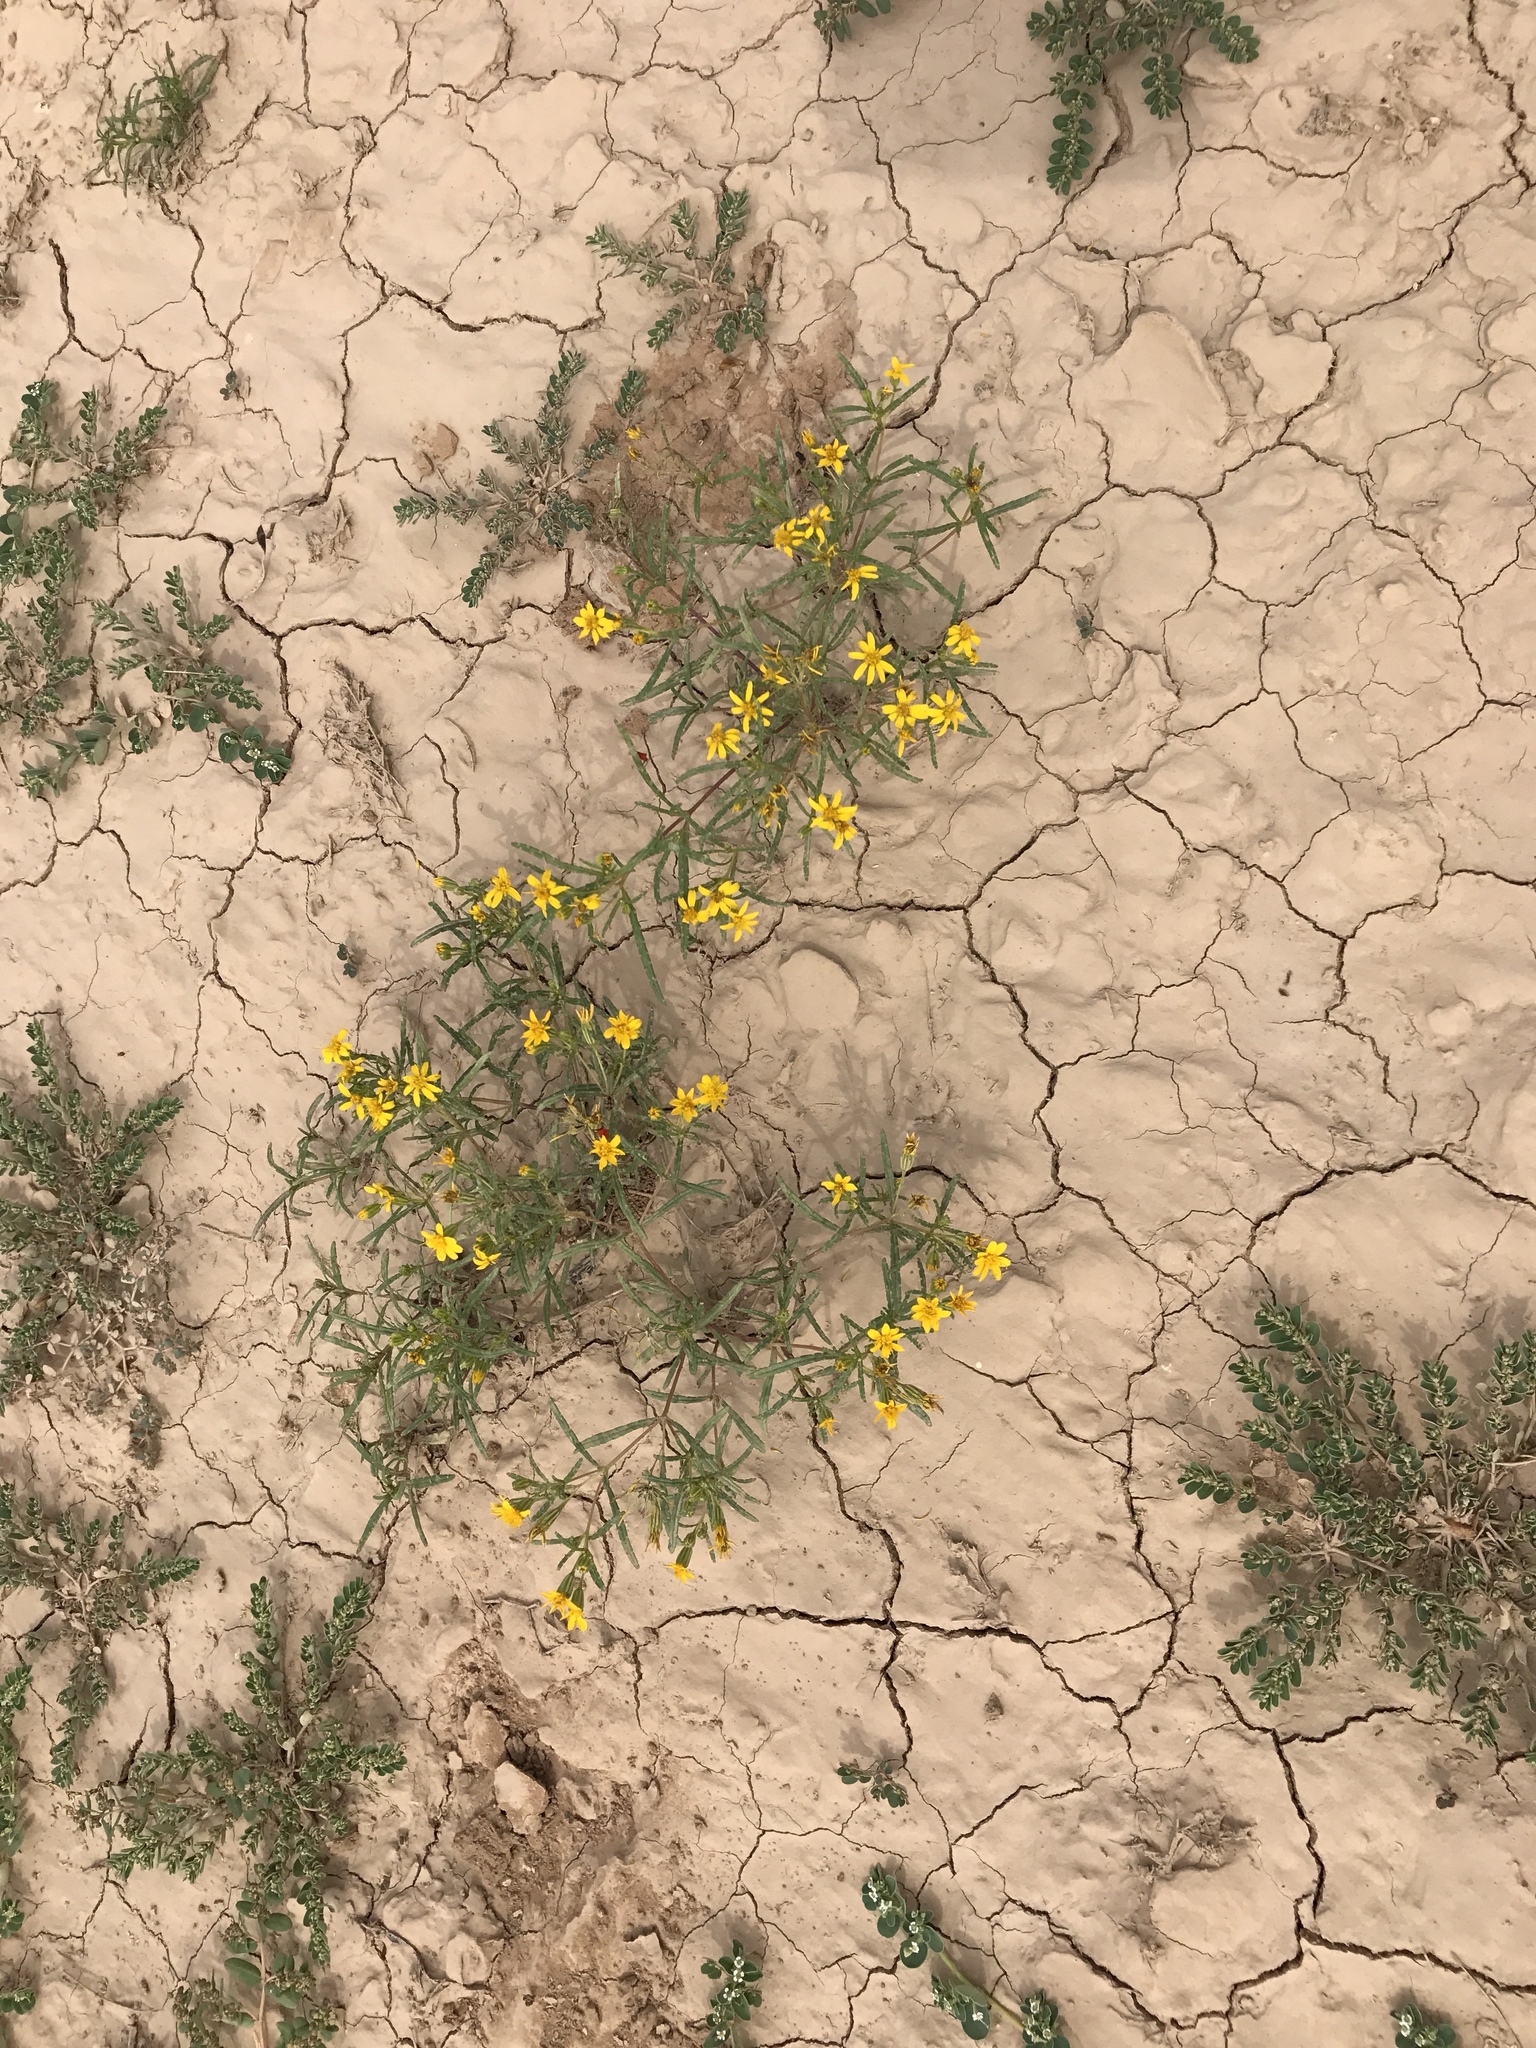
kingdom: Plantae
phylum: Tracheophyta
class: Magnoliopsida
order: Asterales
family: Asteraceae
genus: Pectis
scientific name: Pectis papposa
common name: Many-bristle chinchweed
